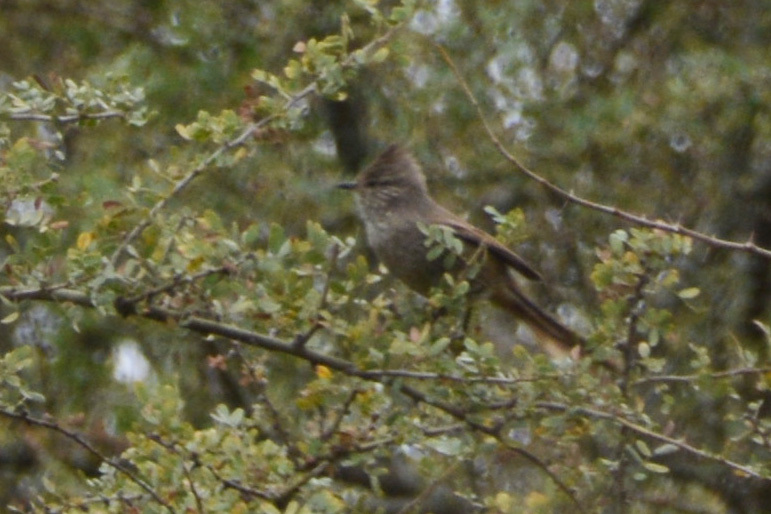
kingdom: Animalia
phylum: Chordata
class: Aves
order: Passeriformes
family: Furnariidae
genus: Leptasthenura
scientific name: Leptasthenura platensis
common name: Tufted tit-spinetail
